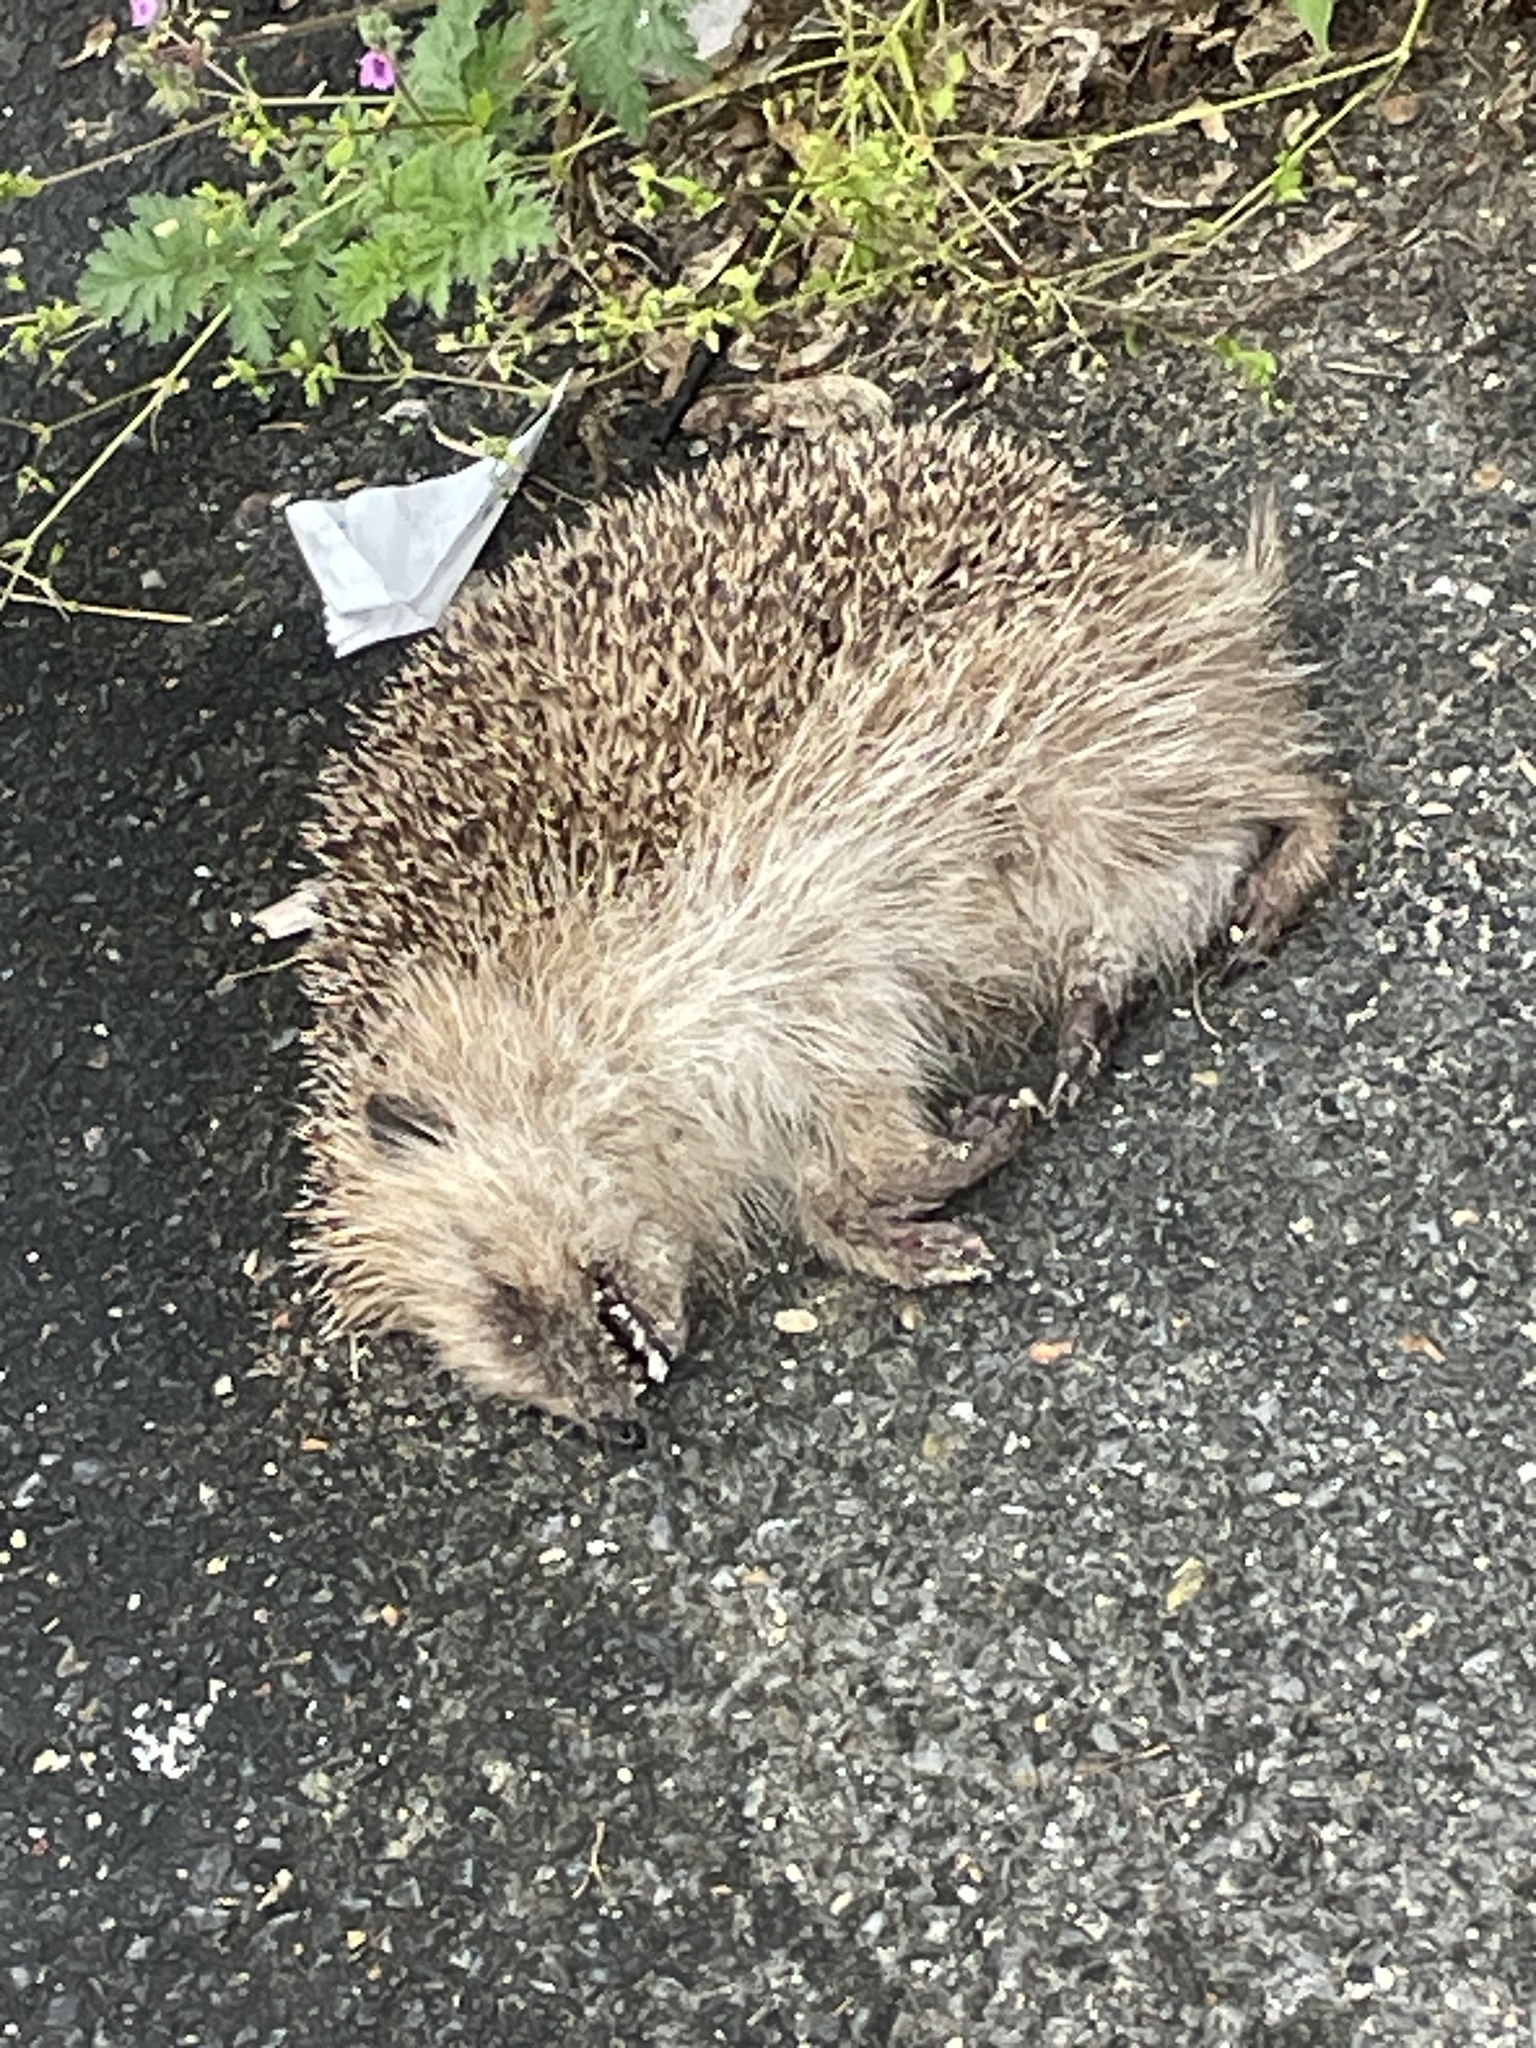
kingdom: Animalia
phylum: Chordata
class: Mammalia
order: Erinaceomorpha
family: Erinaceidae
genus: Erinaceus
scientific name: Erinaceus europaeus
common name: West european hedgehog
